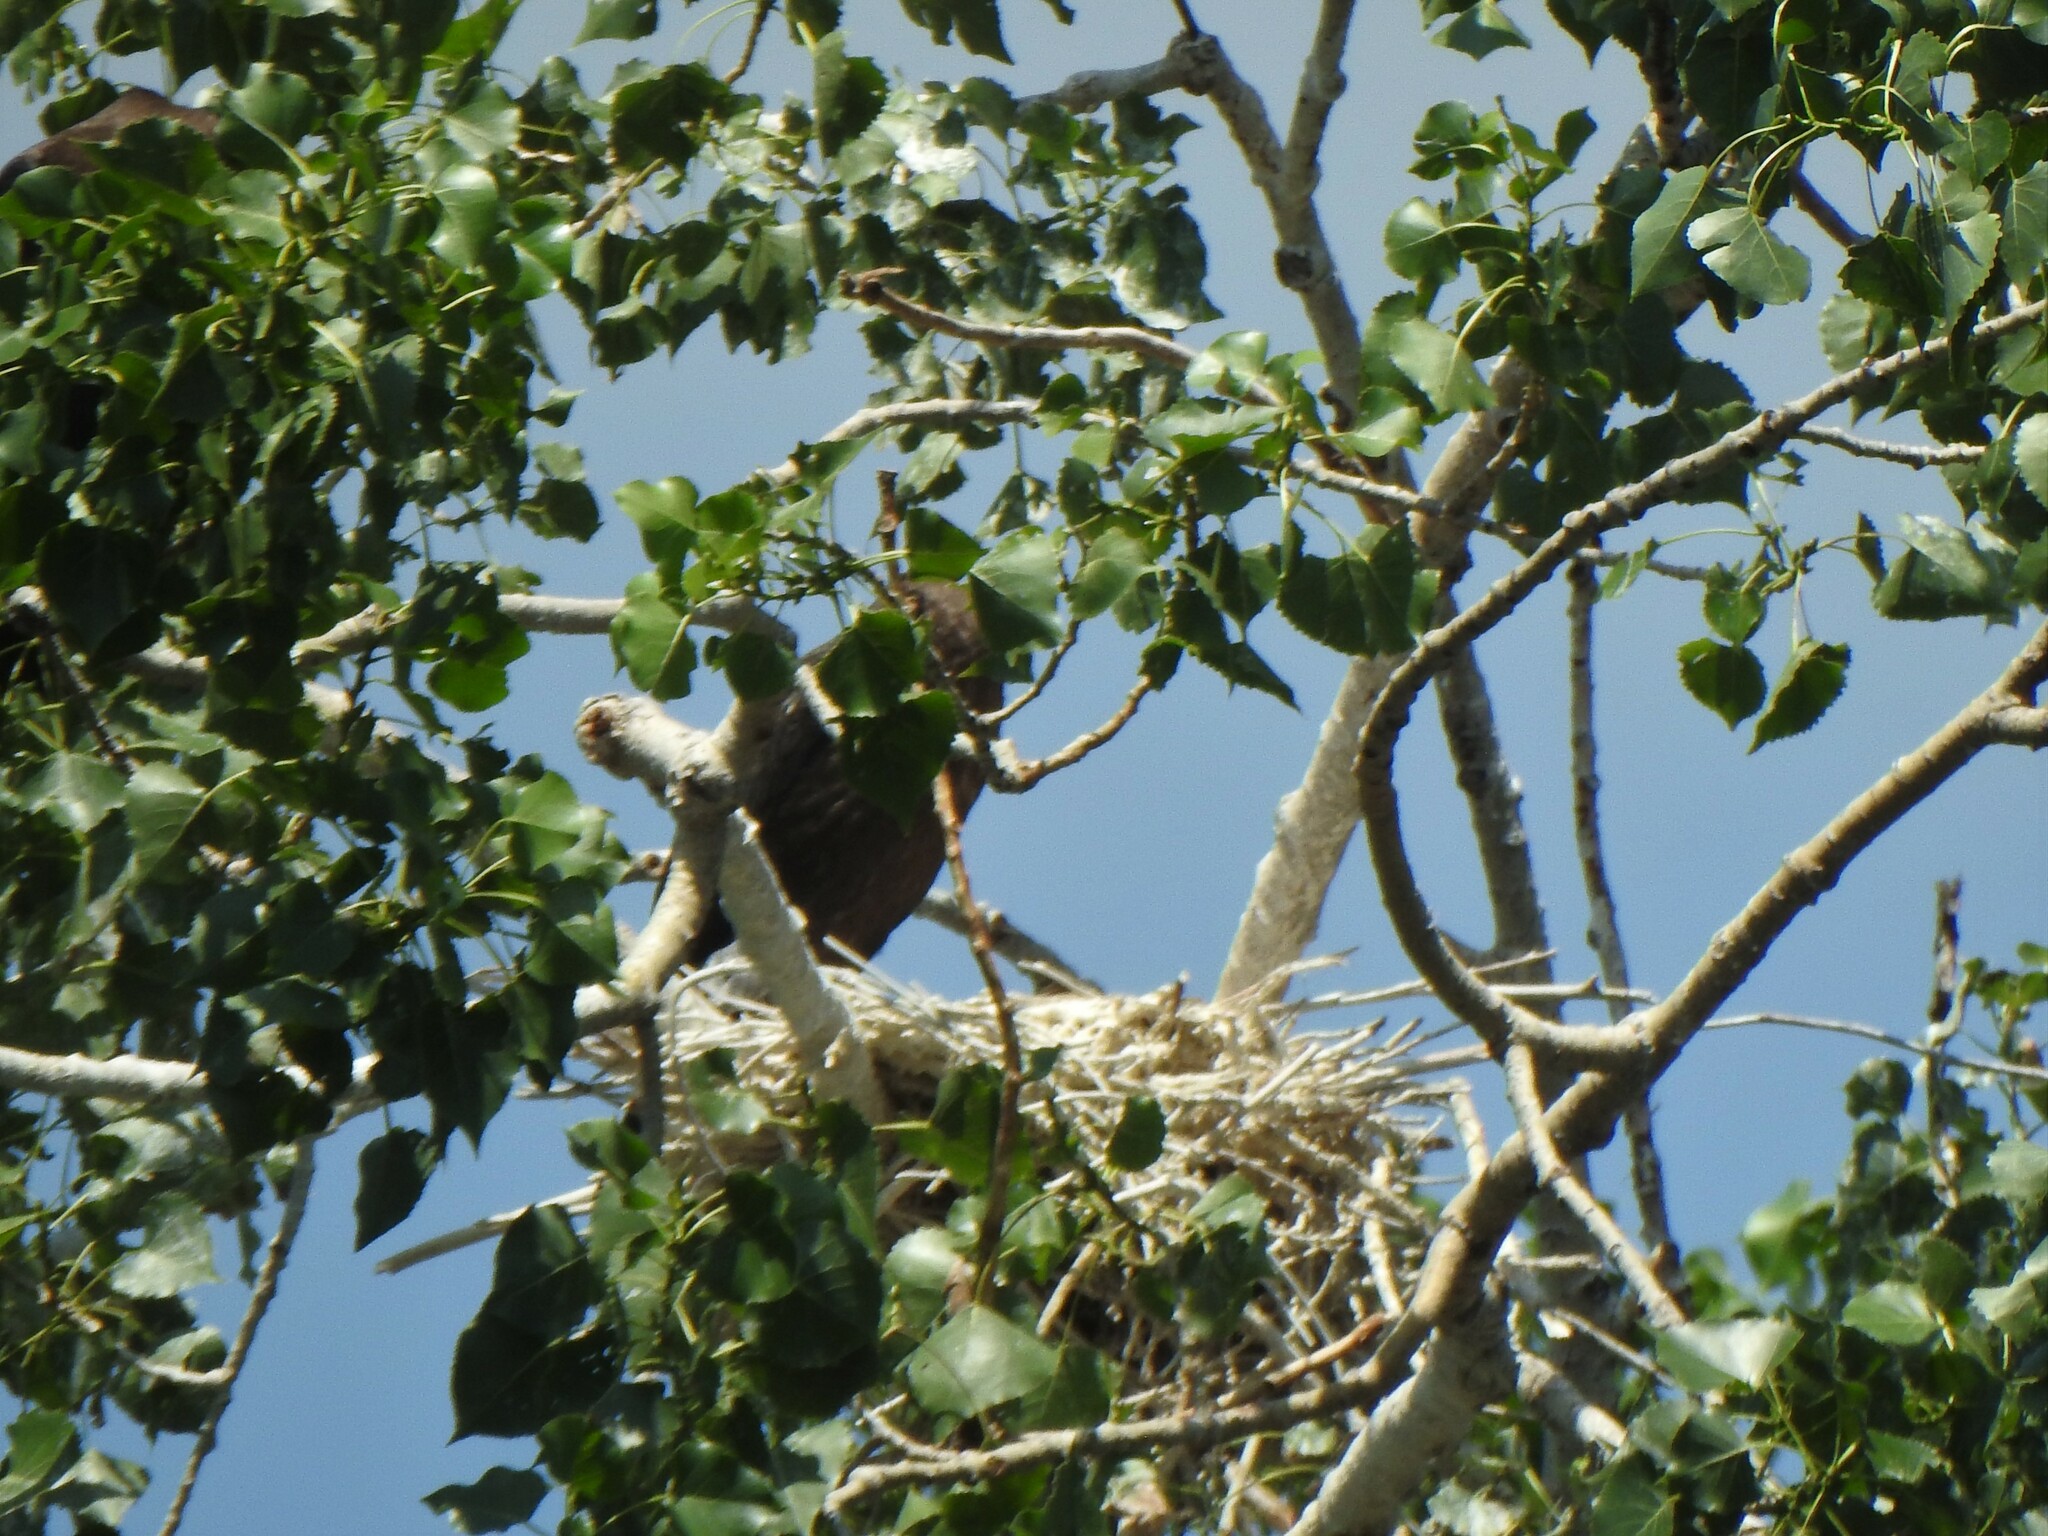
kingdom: Animalia
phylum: Chordata
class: Aves
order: Suliformes
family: Phalacrocoracidae
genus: Phalacrocorax
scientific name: Phalacrocorax auritus
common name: Double-crested cormorant
